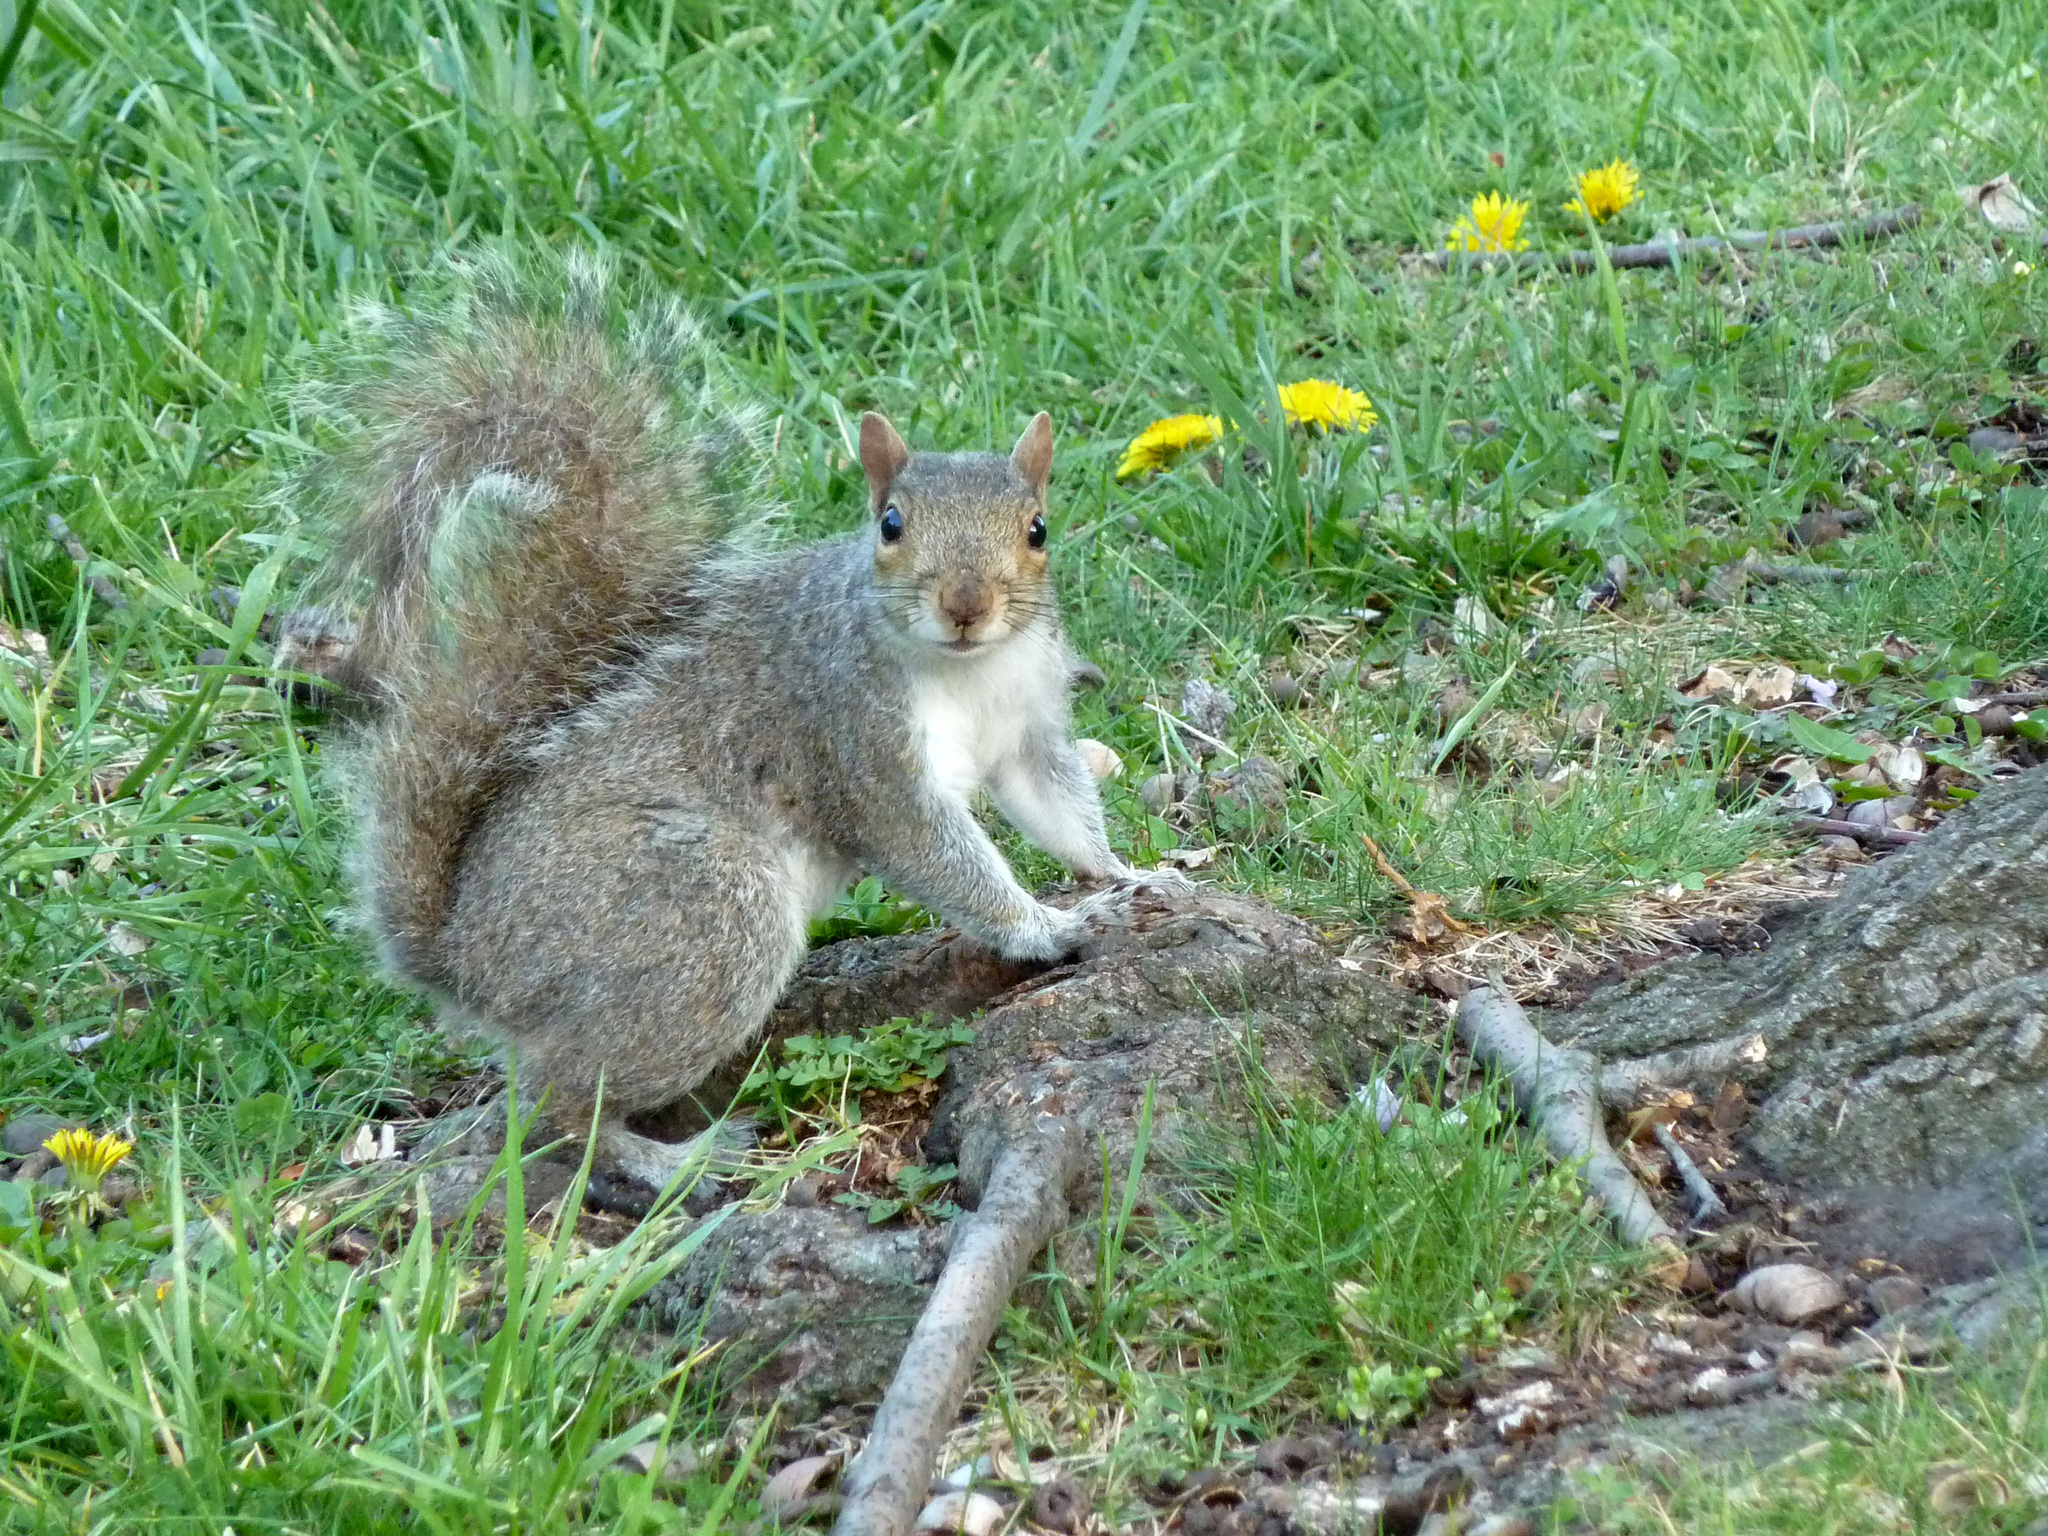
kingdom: Animalia
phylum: Chordata
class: Mammalia
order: Rodentia
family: Sciuridae
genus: Sciurus
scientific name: Sciurus carolinensis
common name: Eastern gray squirrel
